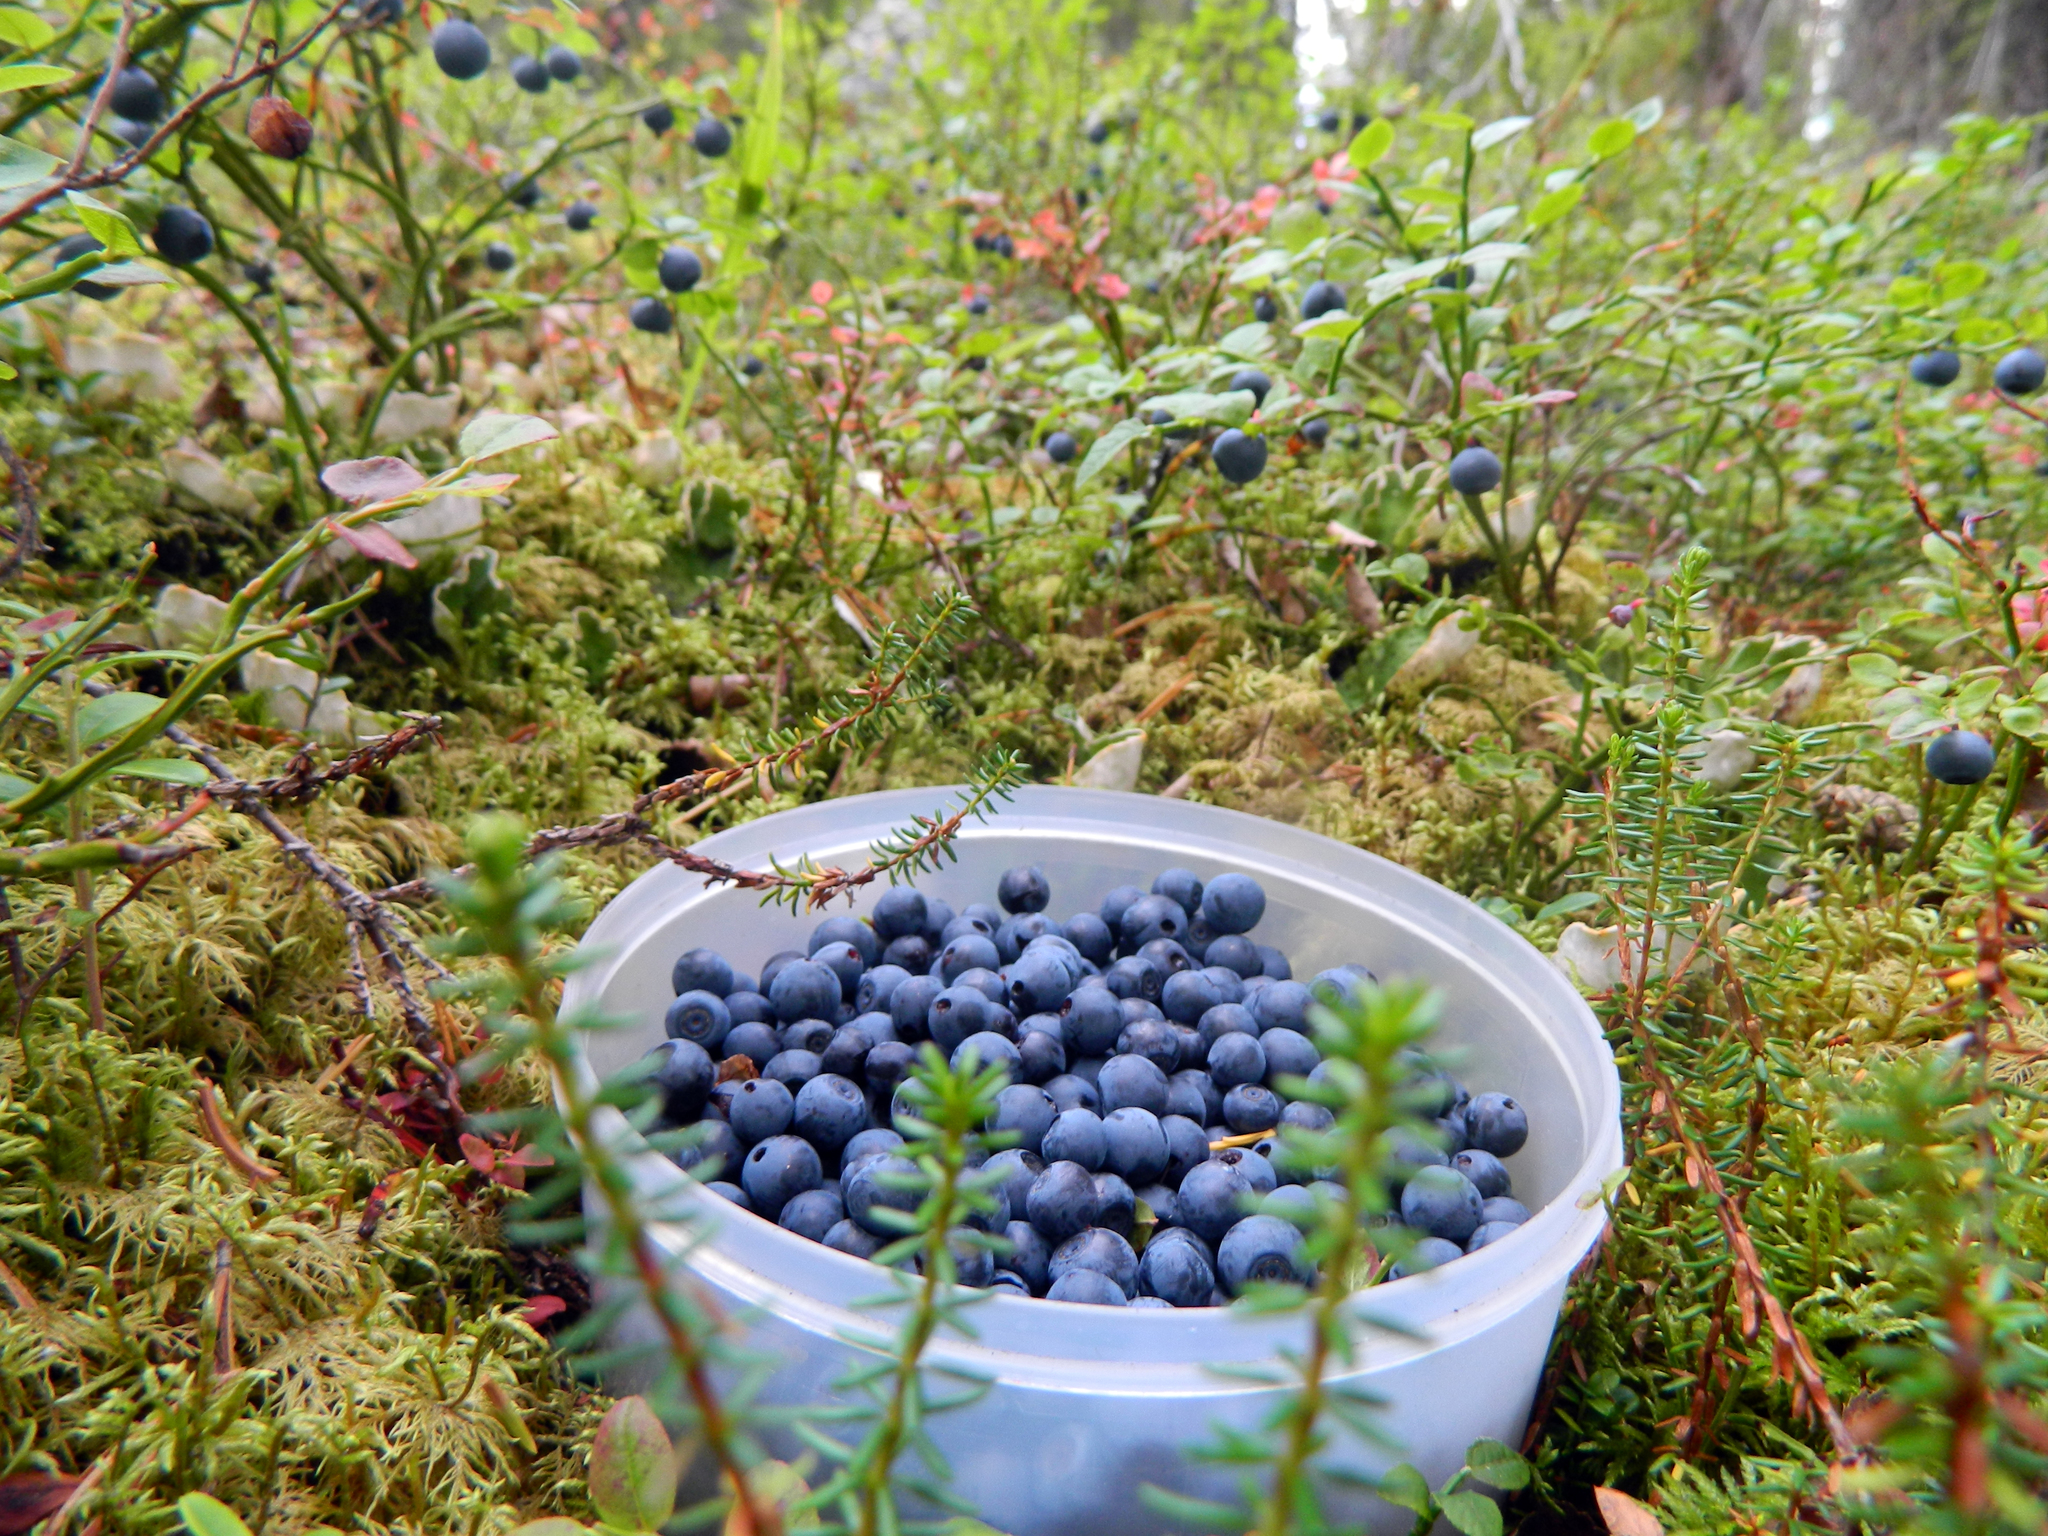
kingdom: Plantae
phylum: Tracheophyta
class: Magnoliopsida
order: Ericales
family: Ericaceae
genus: Vaccinium
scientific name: Vaccinium myrtillus
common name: Bilberry
